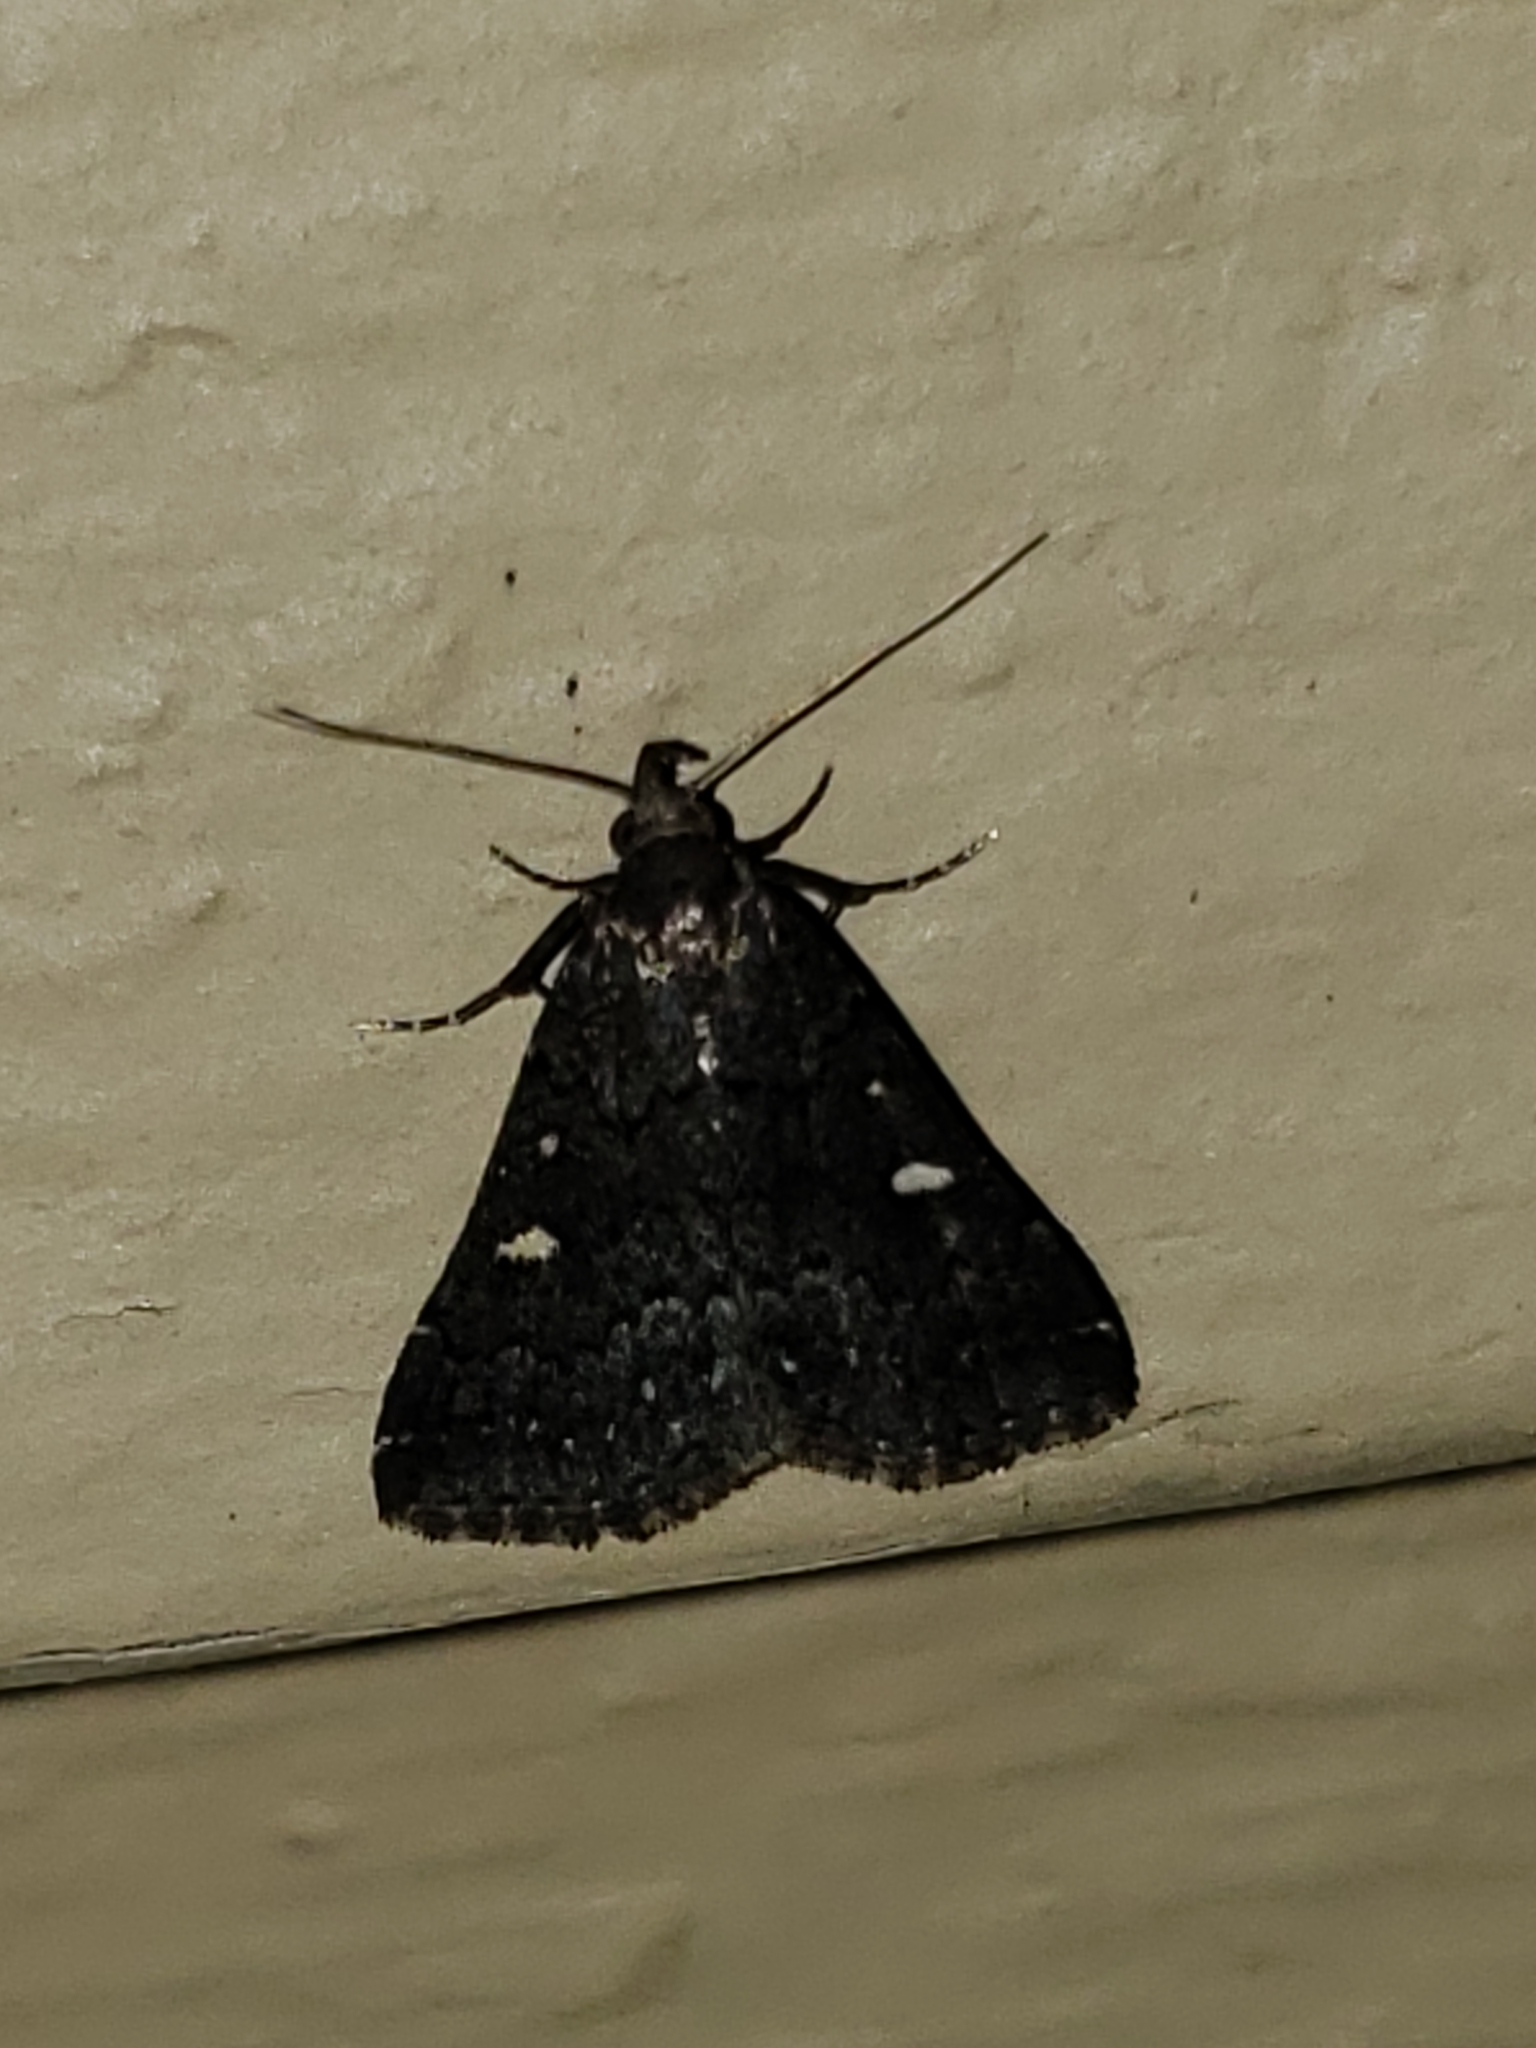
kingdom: Animalia
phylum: Arthropoda
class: Insecta
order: Lepidoptera
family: Erebidae
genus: Tetanolita
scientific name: Tetanolita mynesalis
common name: Smoky tetanolita moth
